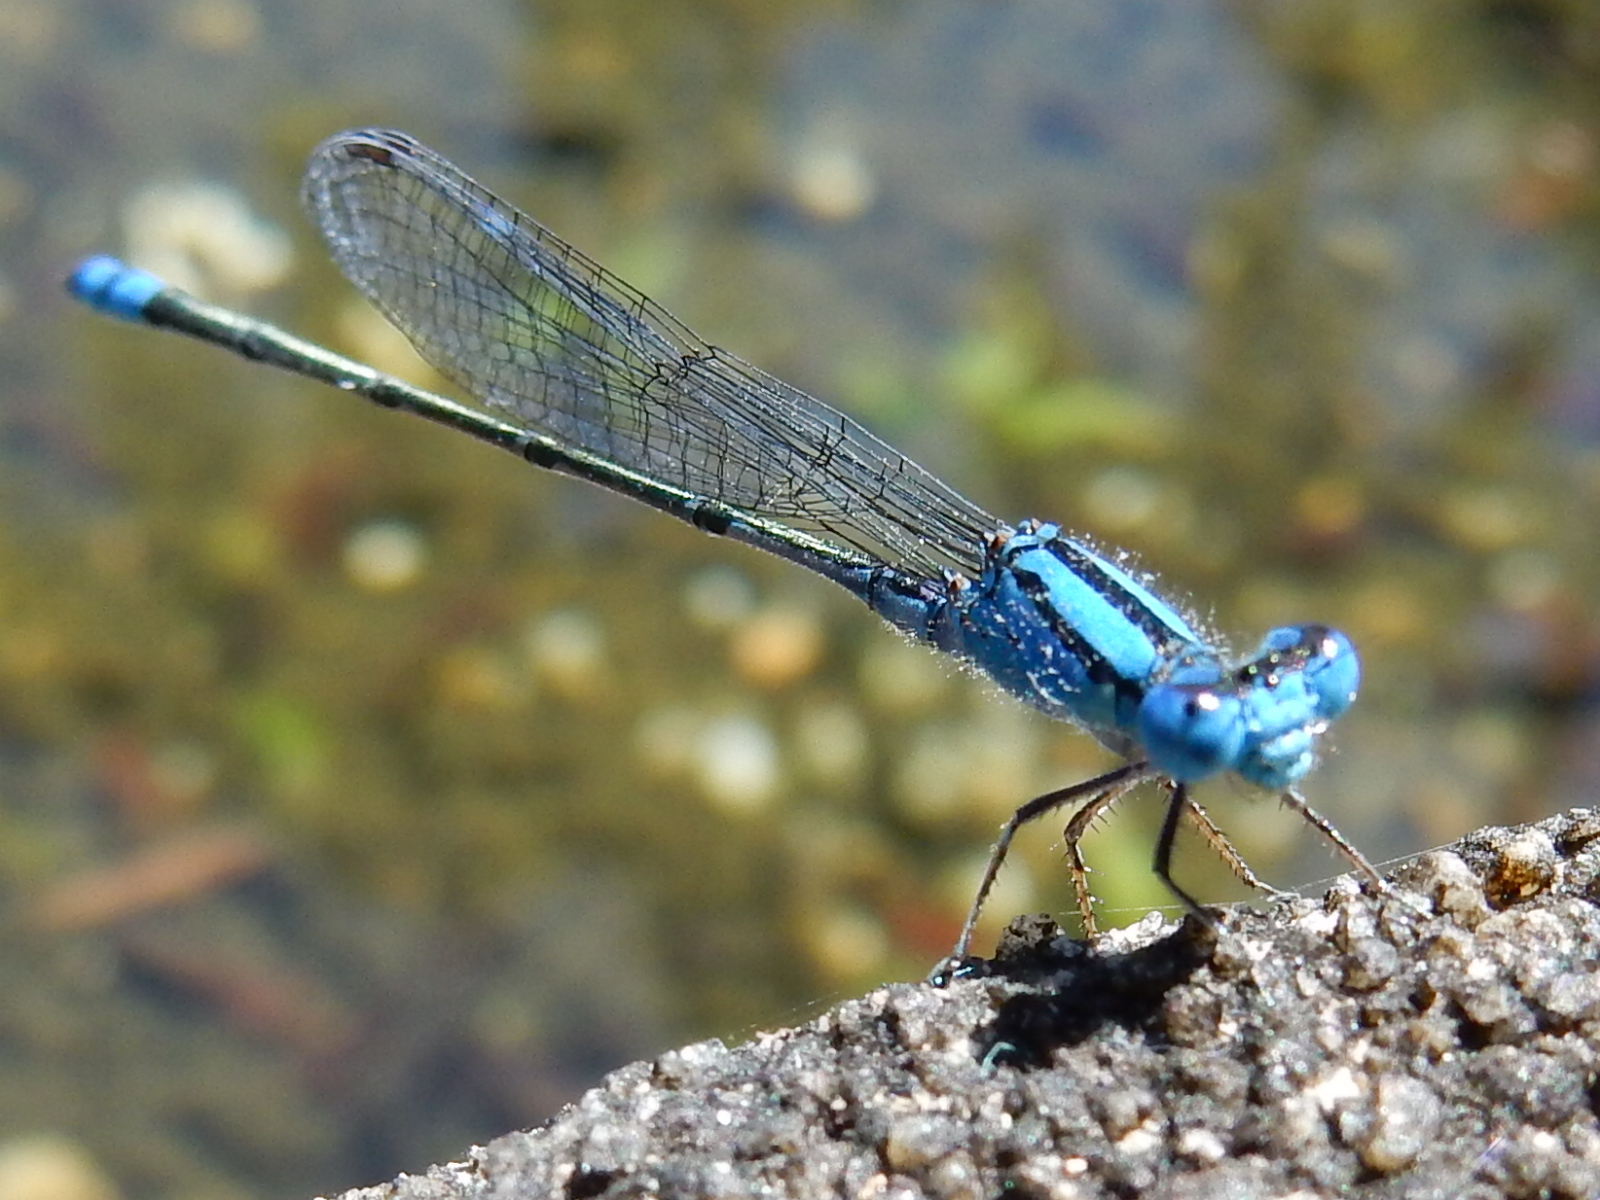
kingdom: Animalia
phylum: Arthropoda
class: Insecta
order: Odonata
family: Coenagrionidae
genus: Pseudagrion
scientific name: Pseudagrion microcephalum
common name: Blue riverdamsel
